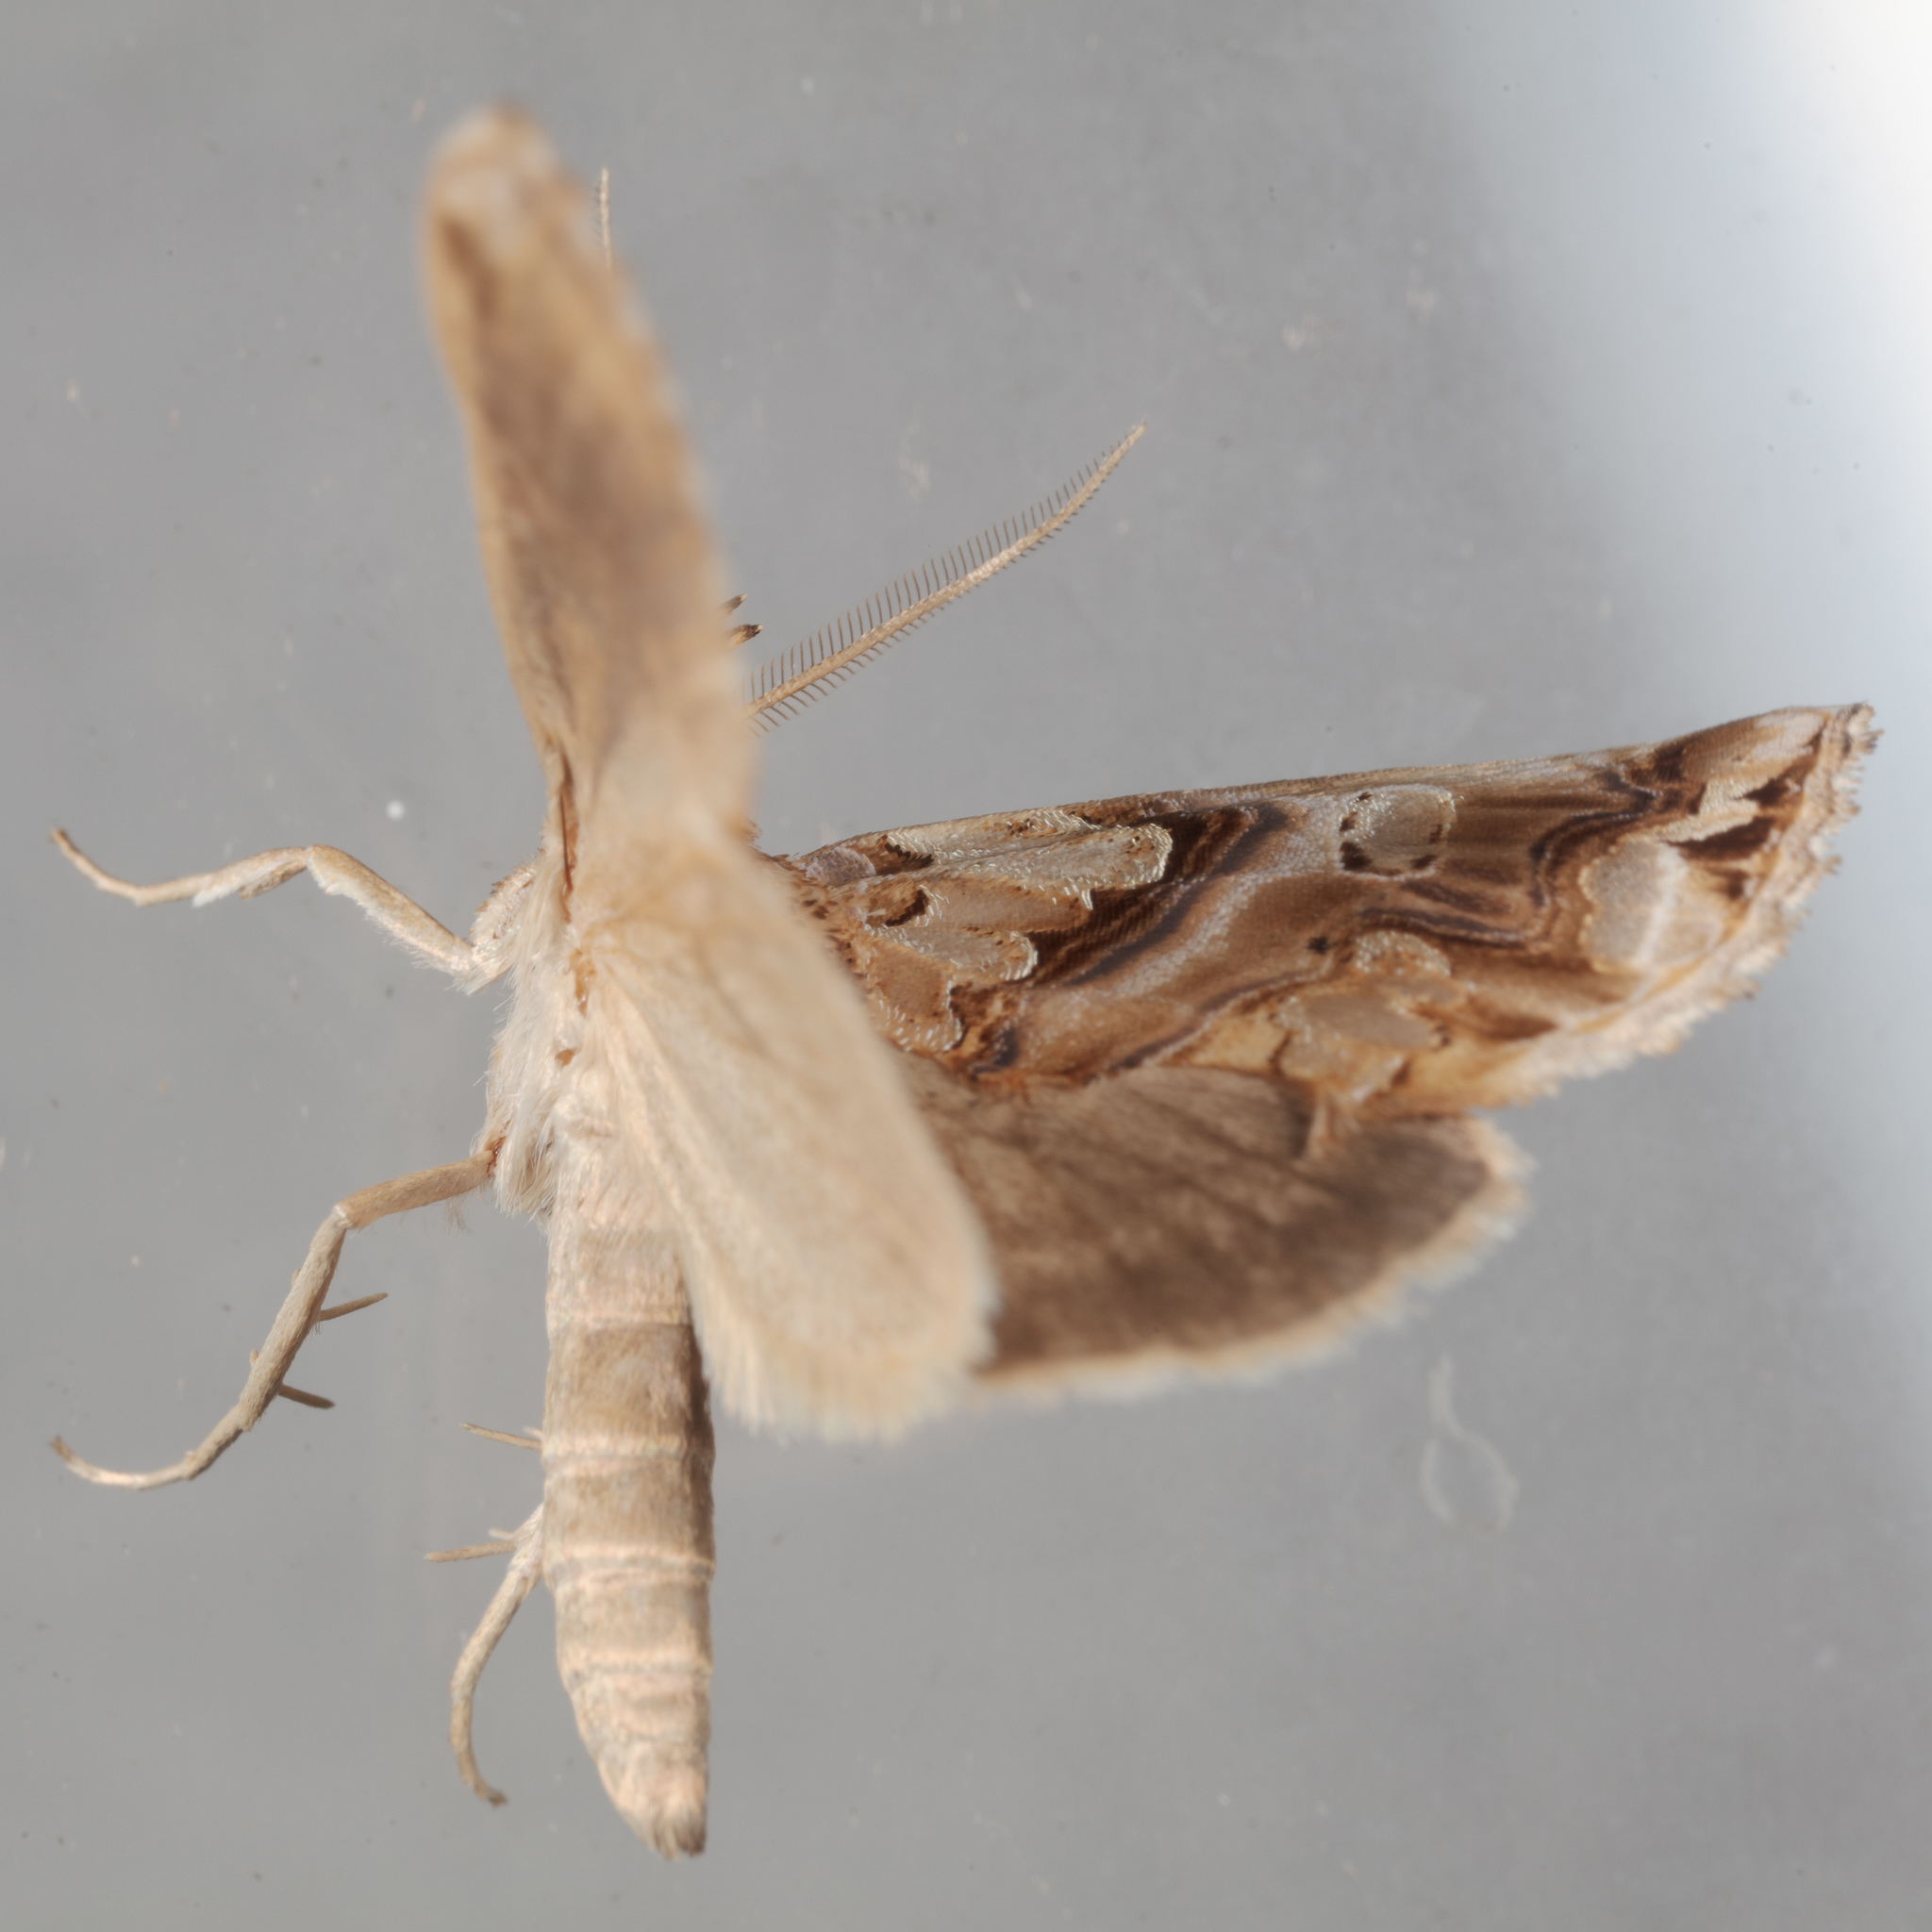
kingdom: Animalia
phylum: Arthropoda
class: Insecta
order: Lepidoptera
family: Erebidae
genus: Plusiodonta
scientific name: Plusiodonta compressipalpis
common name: Moonseed moth
